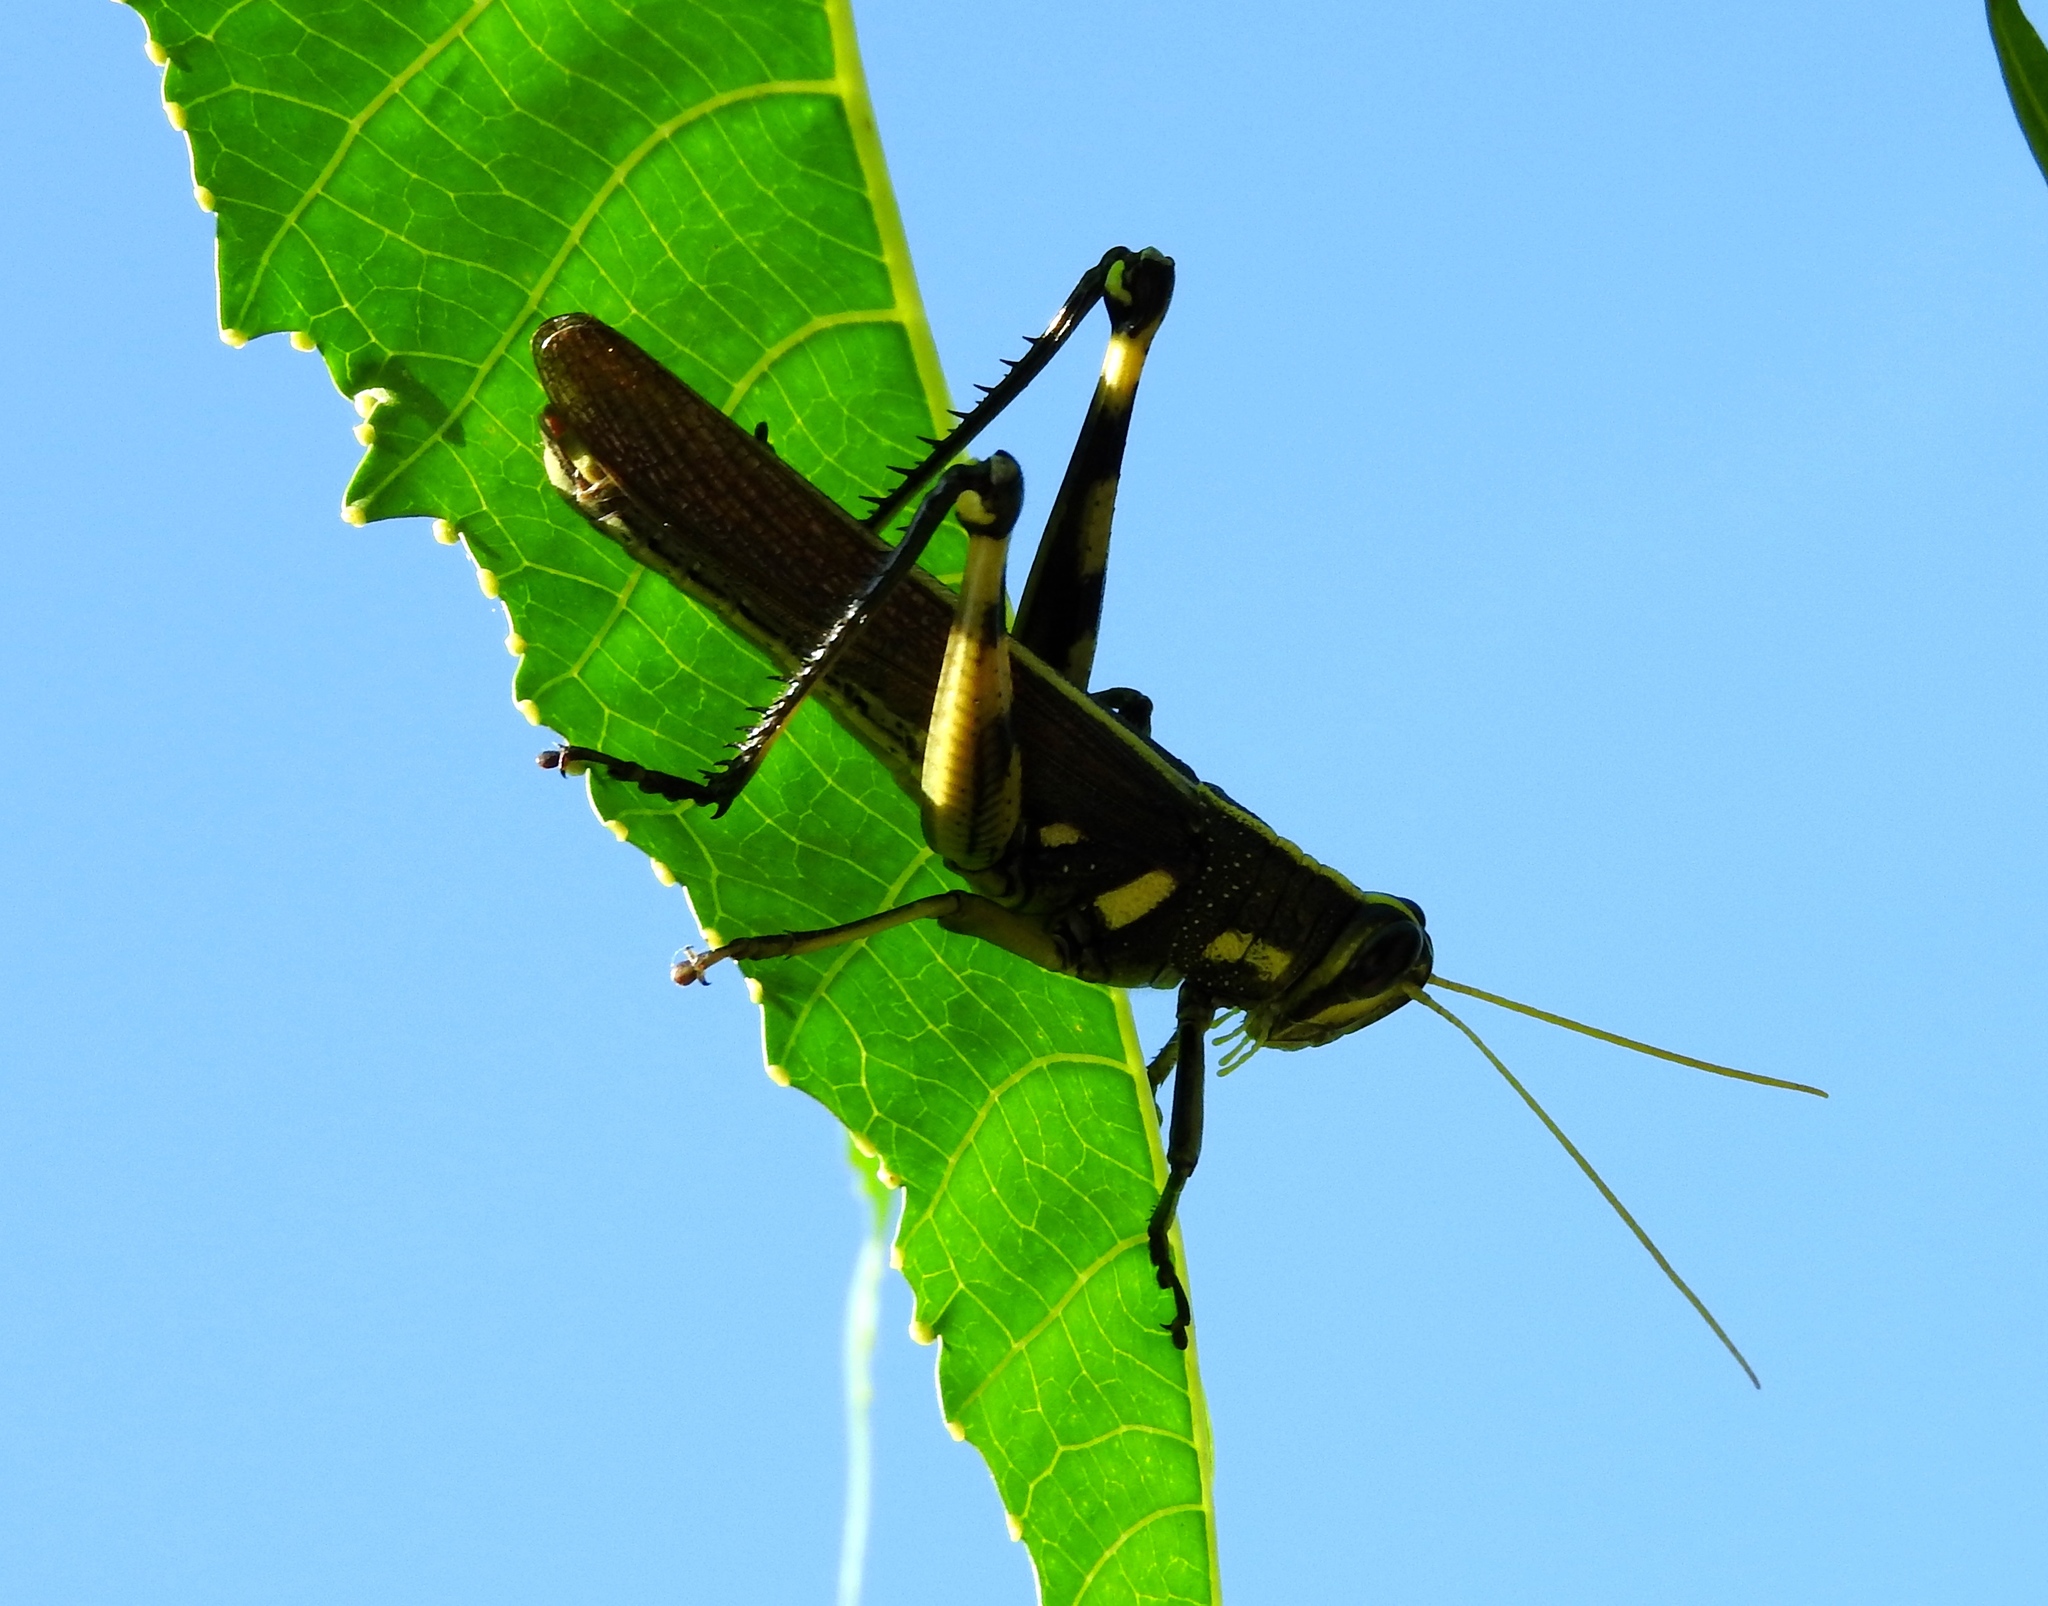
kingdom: Animalia
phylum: Arthropoda
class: Insecta
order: Orthoptera
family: Acrididae
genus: Schistocerca
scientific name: Schistocerca albolineata
